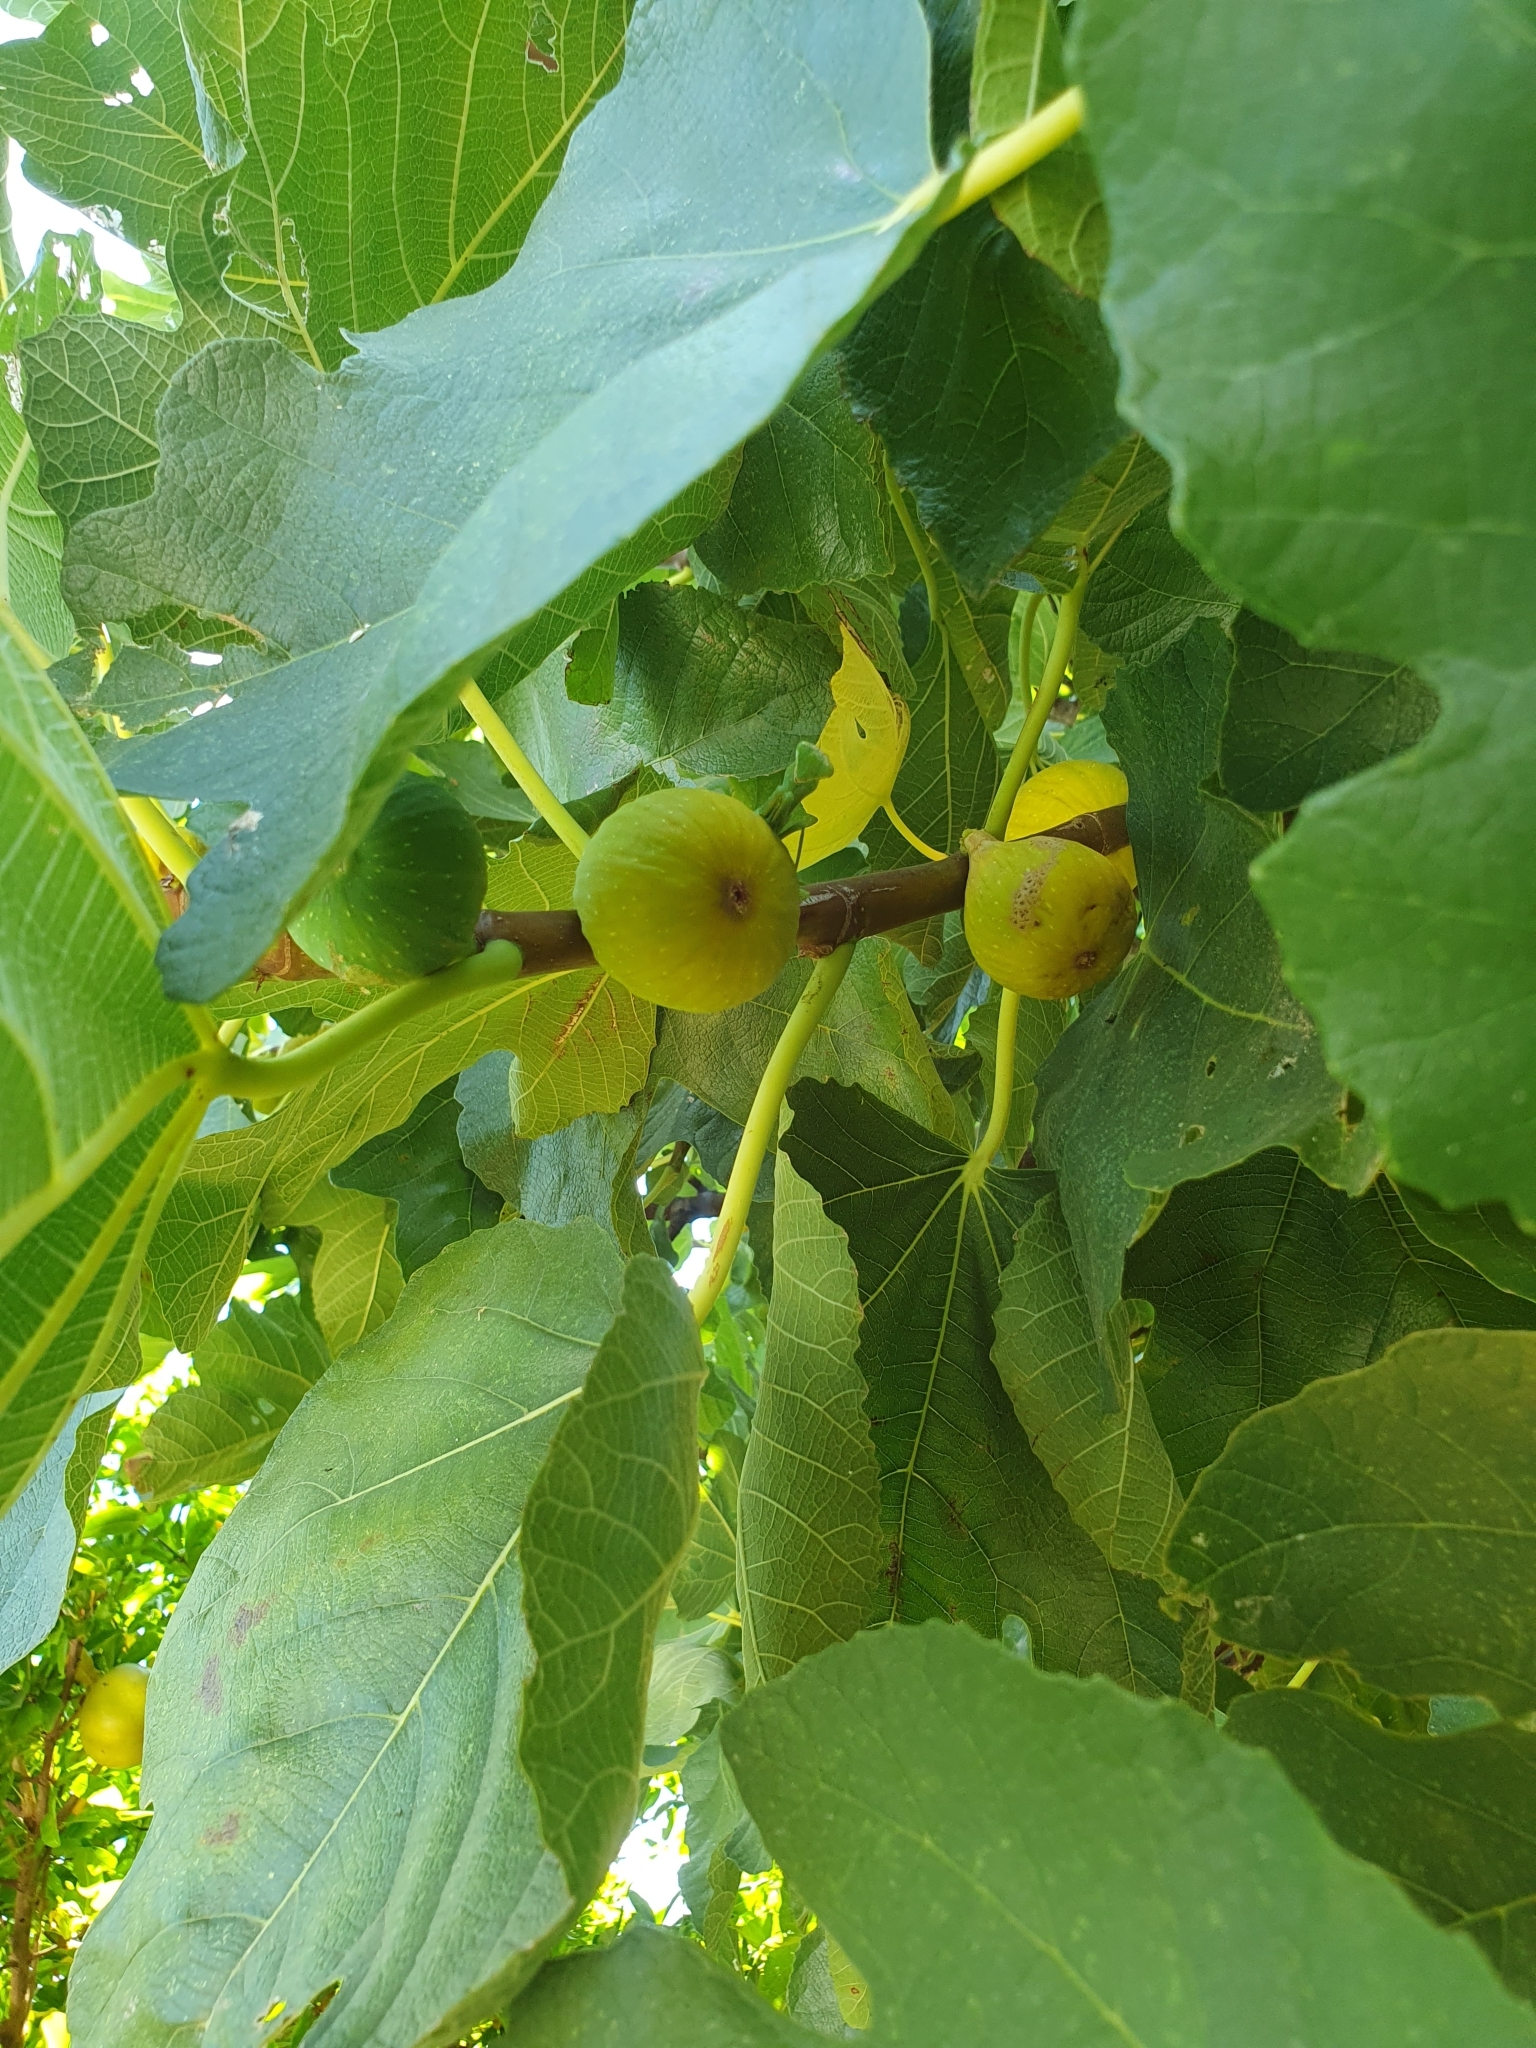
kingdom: Animalia
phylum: Arthropoda
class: Insecta
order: Mantodea
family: Mantidae
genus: Hierodula
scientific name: Hierodula transcaucasica
